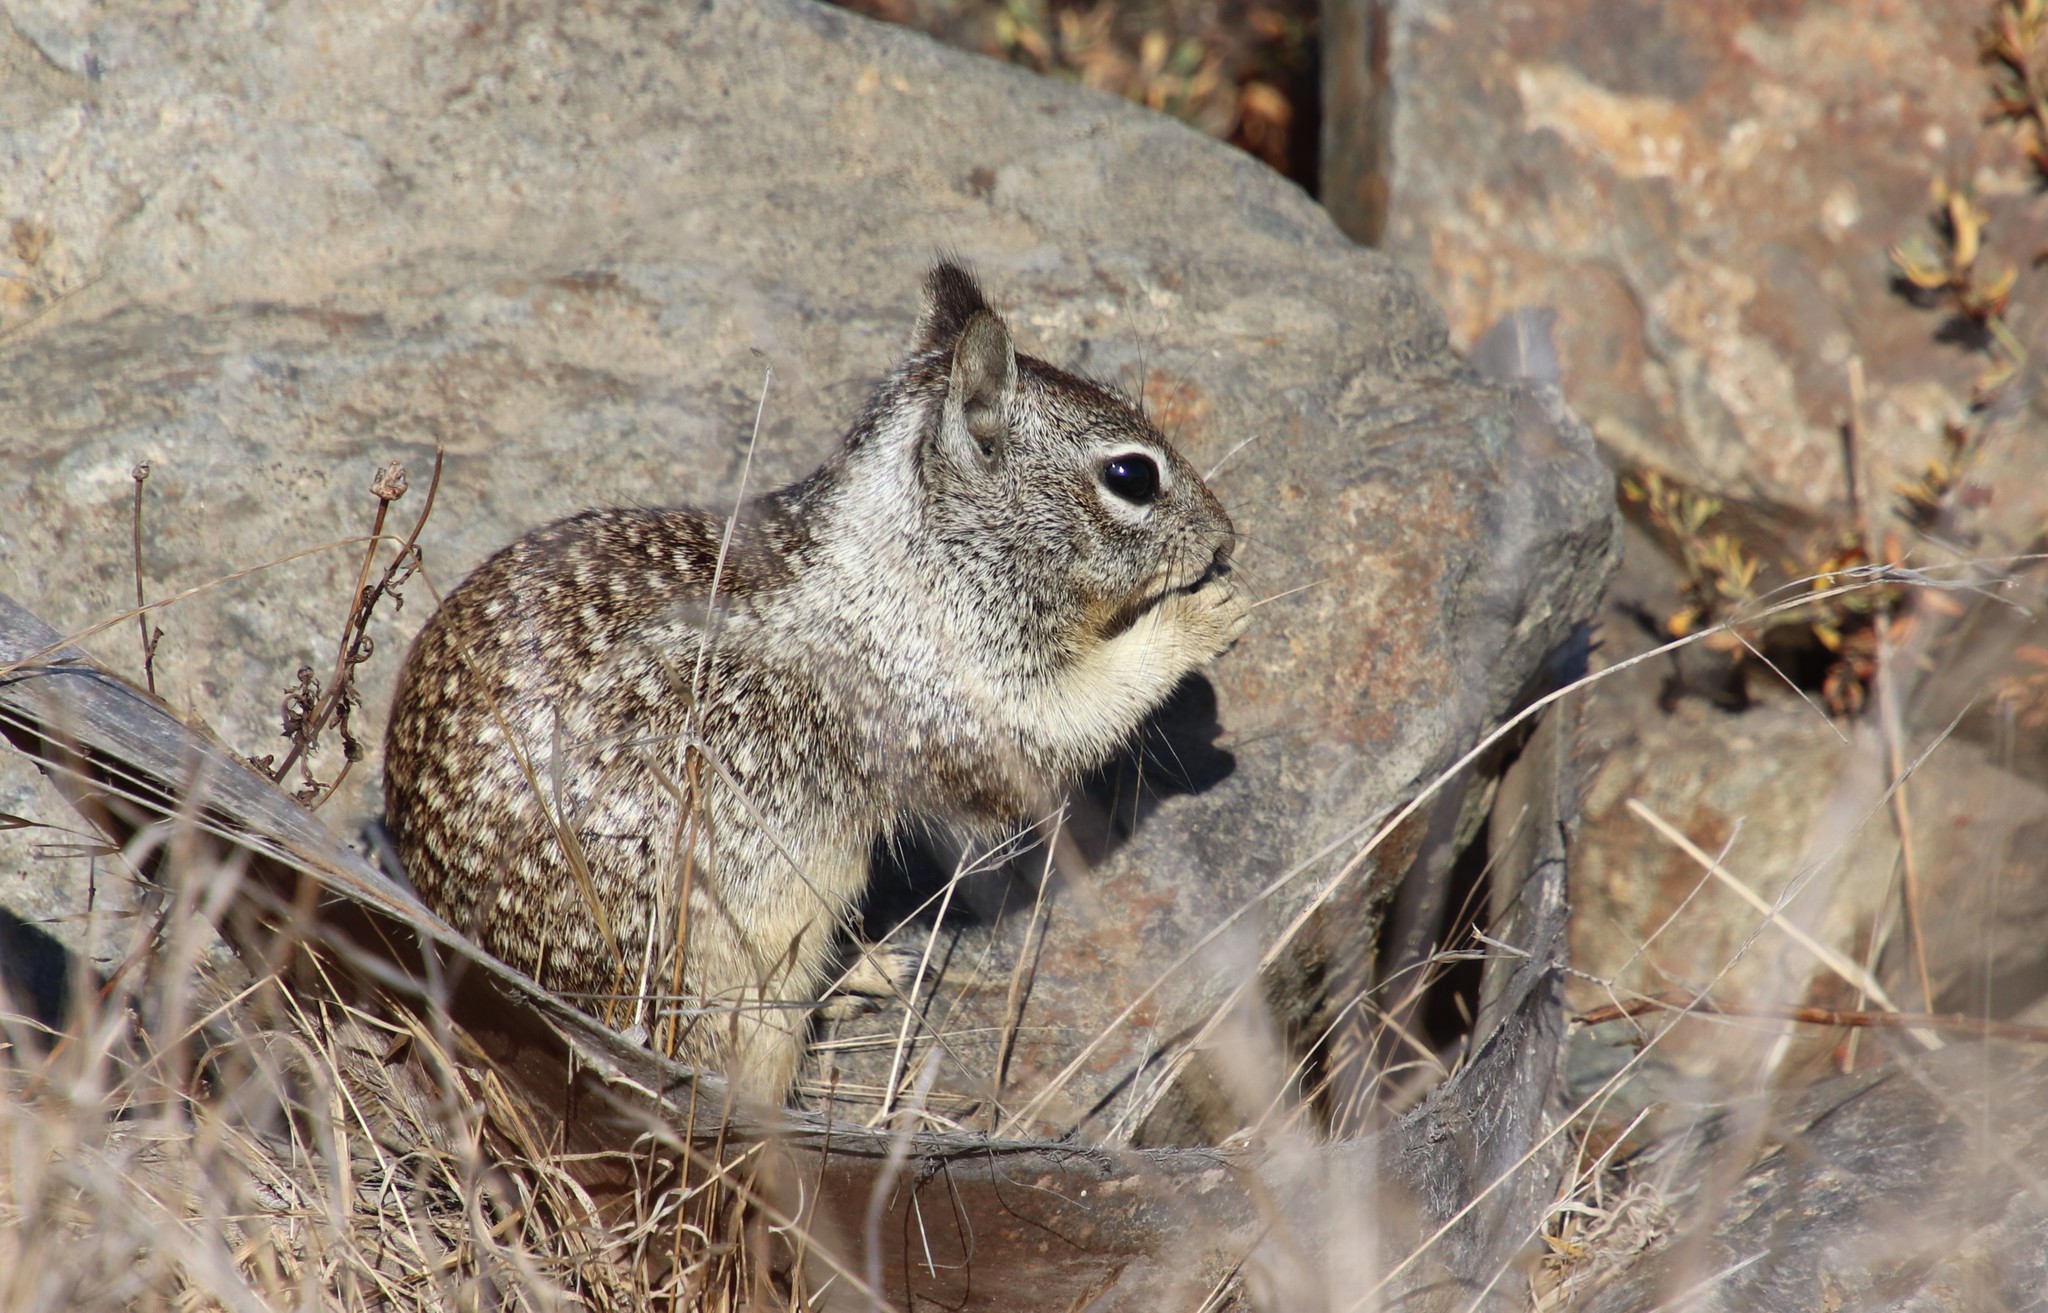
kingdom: Animalia
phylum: Chordata
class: Mammalia
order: Rodentia
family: Sciuridae
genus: Otospermophilus
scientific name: Otospermophilus beecheyi
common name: California ground squirrel
